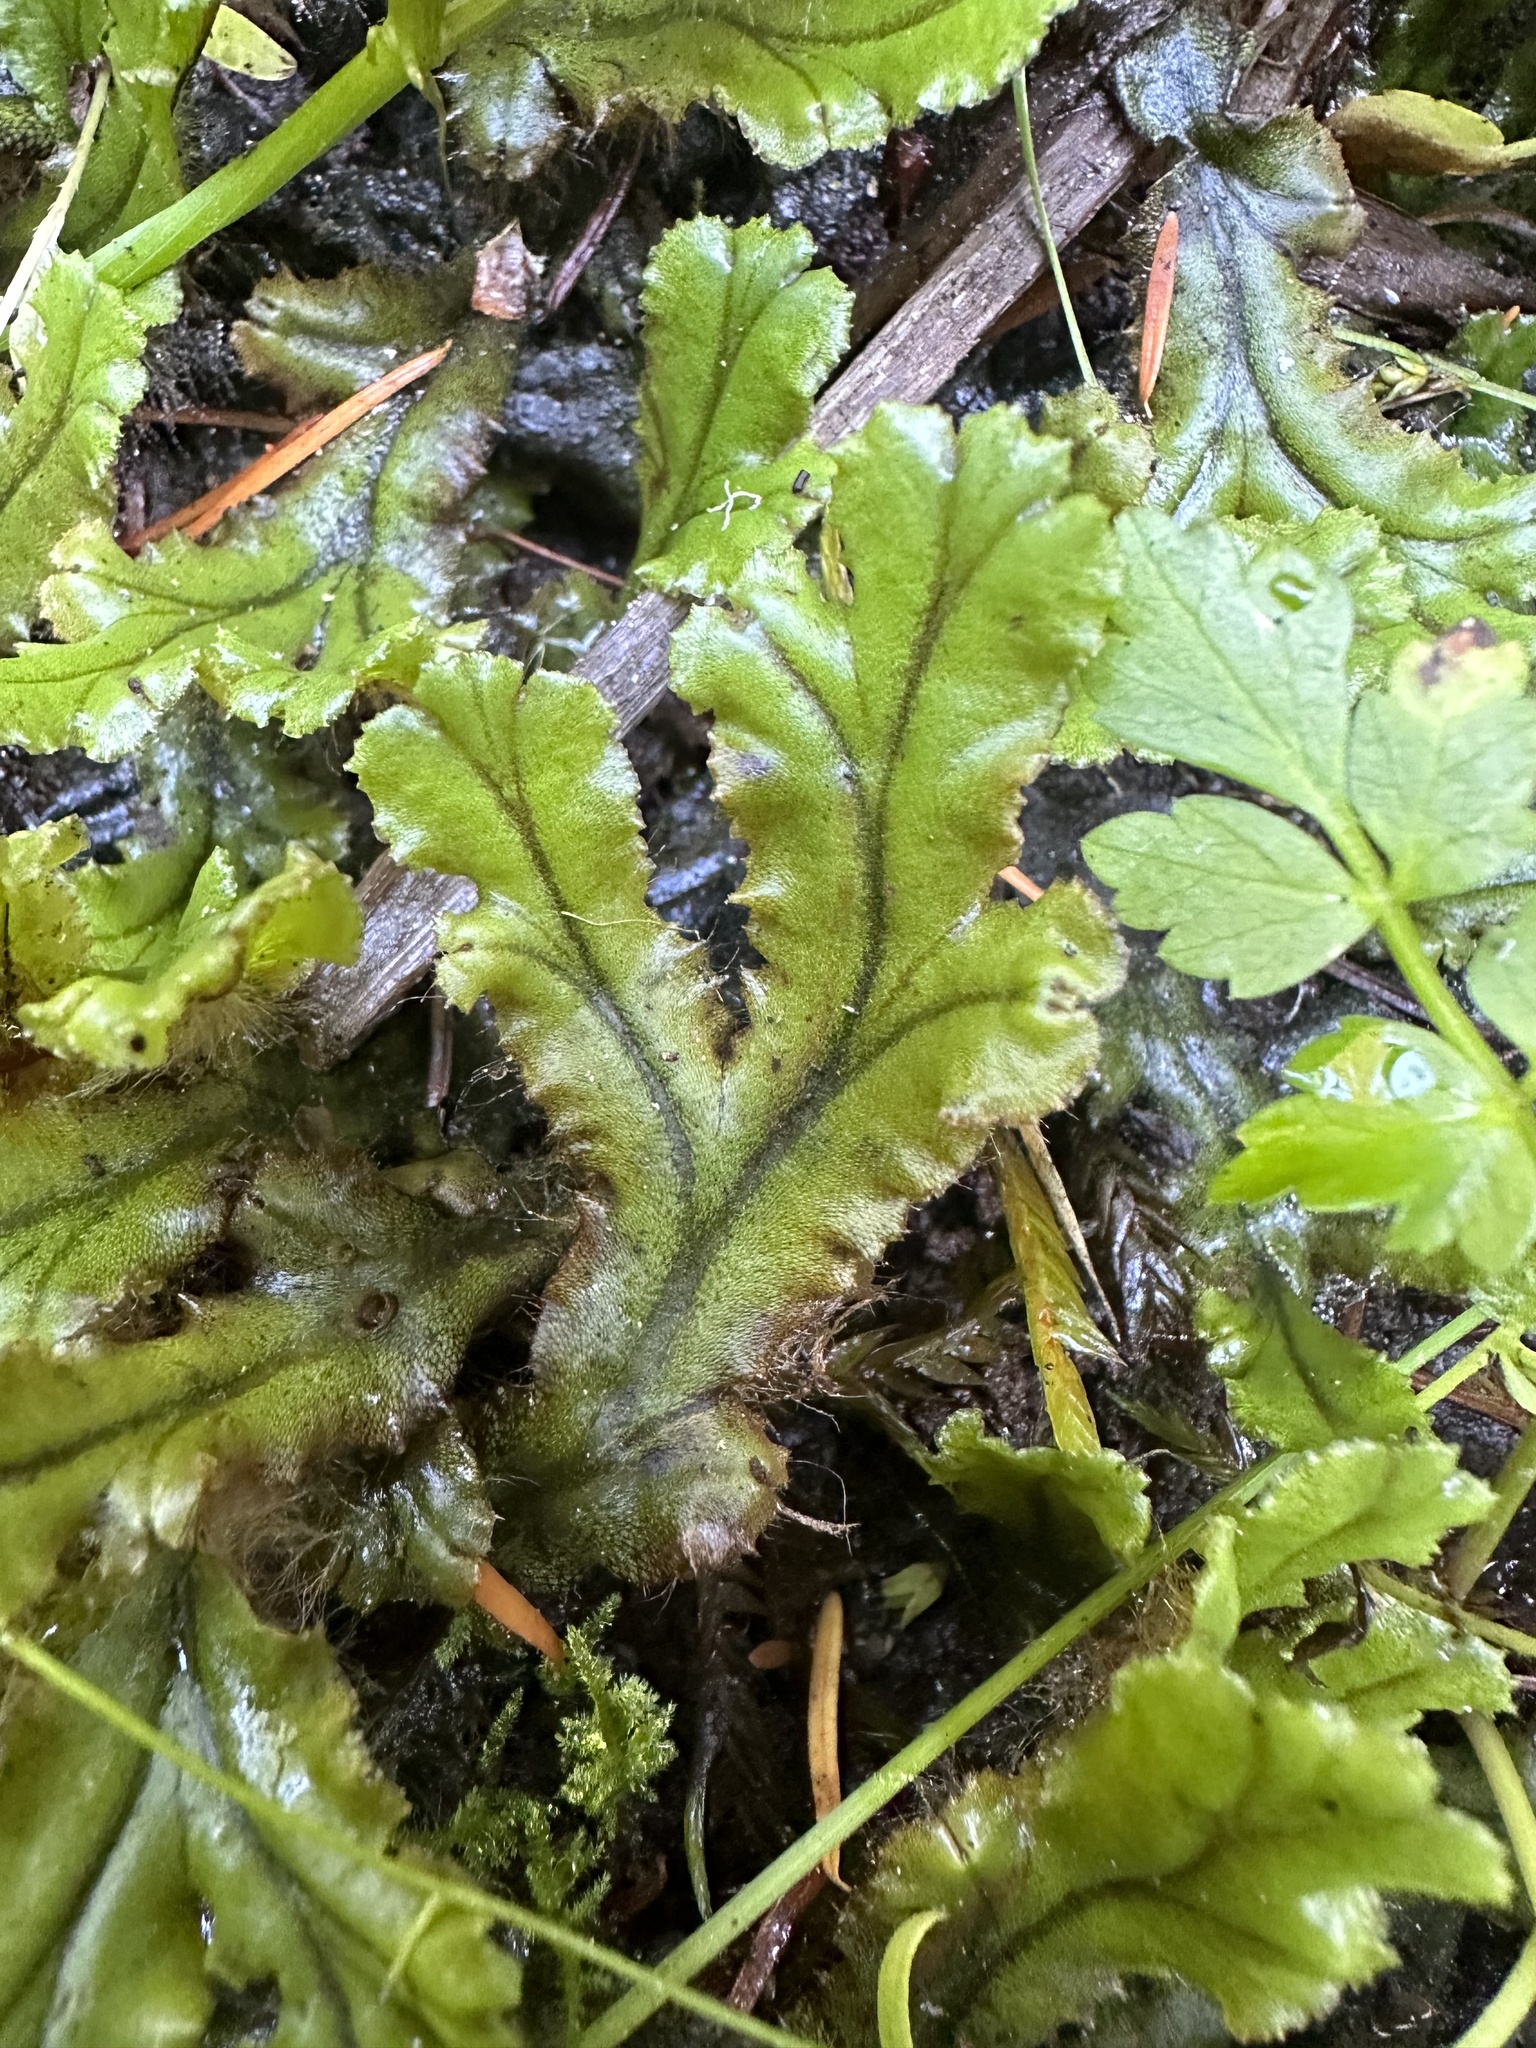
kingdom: Plantae
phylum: Marchantiophyta
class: Marchantiopsida
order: Marchantiales
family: Marchantiaceae
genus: Marchantia
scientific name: Marchantia polymorpha
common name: Common liverwort
